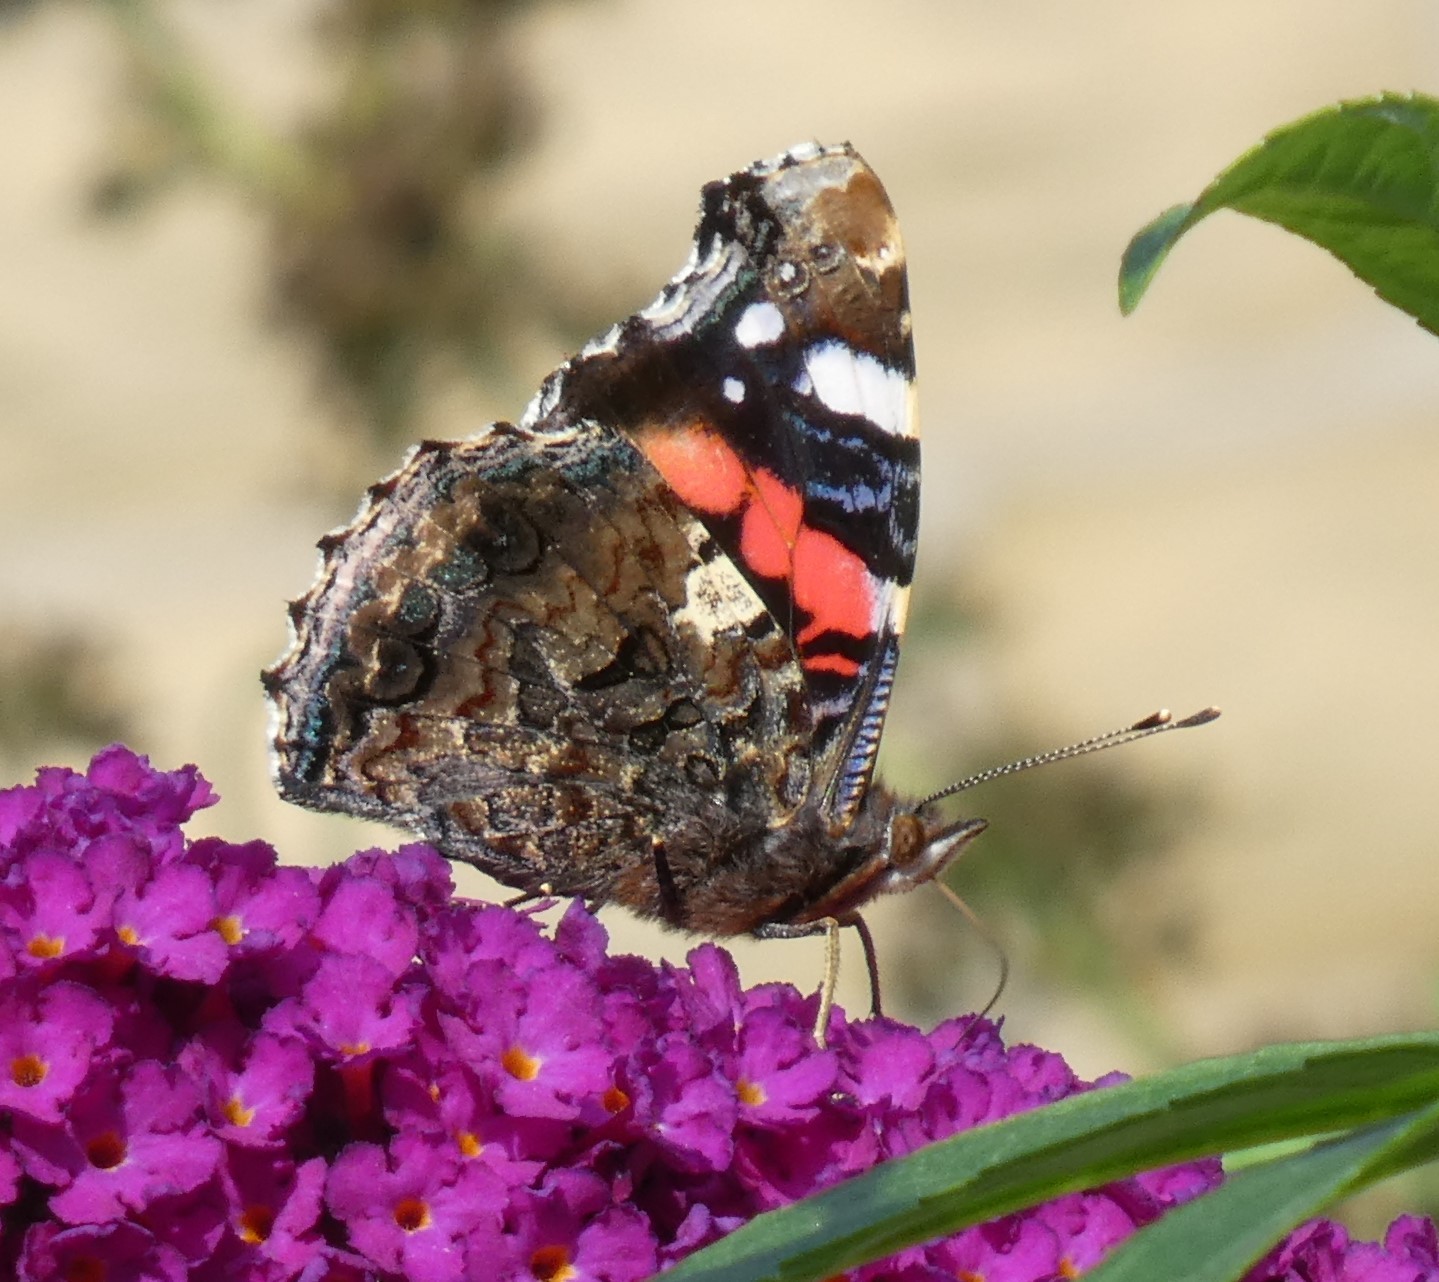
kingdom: Animalia
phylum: Arthropoda
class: Insecta
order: Lepidoptera
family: Nymphalidae
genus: Vanessa
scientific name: Vanessa atalanta
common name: Red admiral
